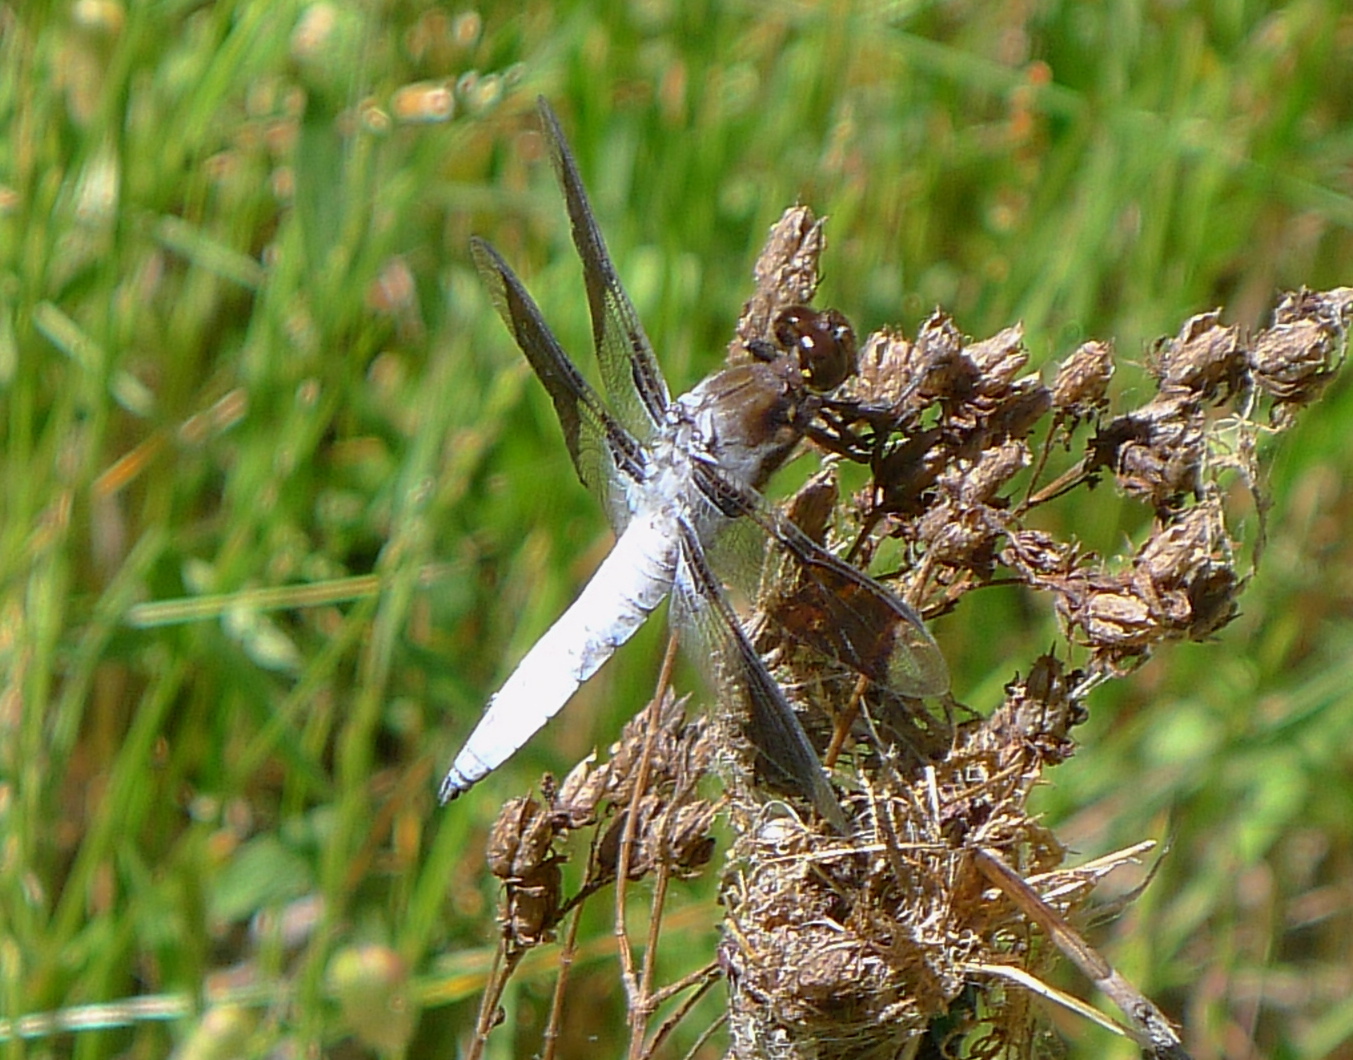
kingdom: Animalia
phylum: Arthropoda
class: Insecta
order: Odonata
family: Libellulidae
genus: Plathemis
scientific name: Plathemis lydia
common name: Common whitetail
